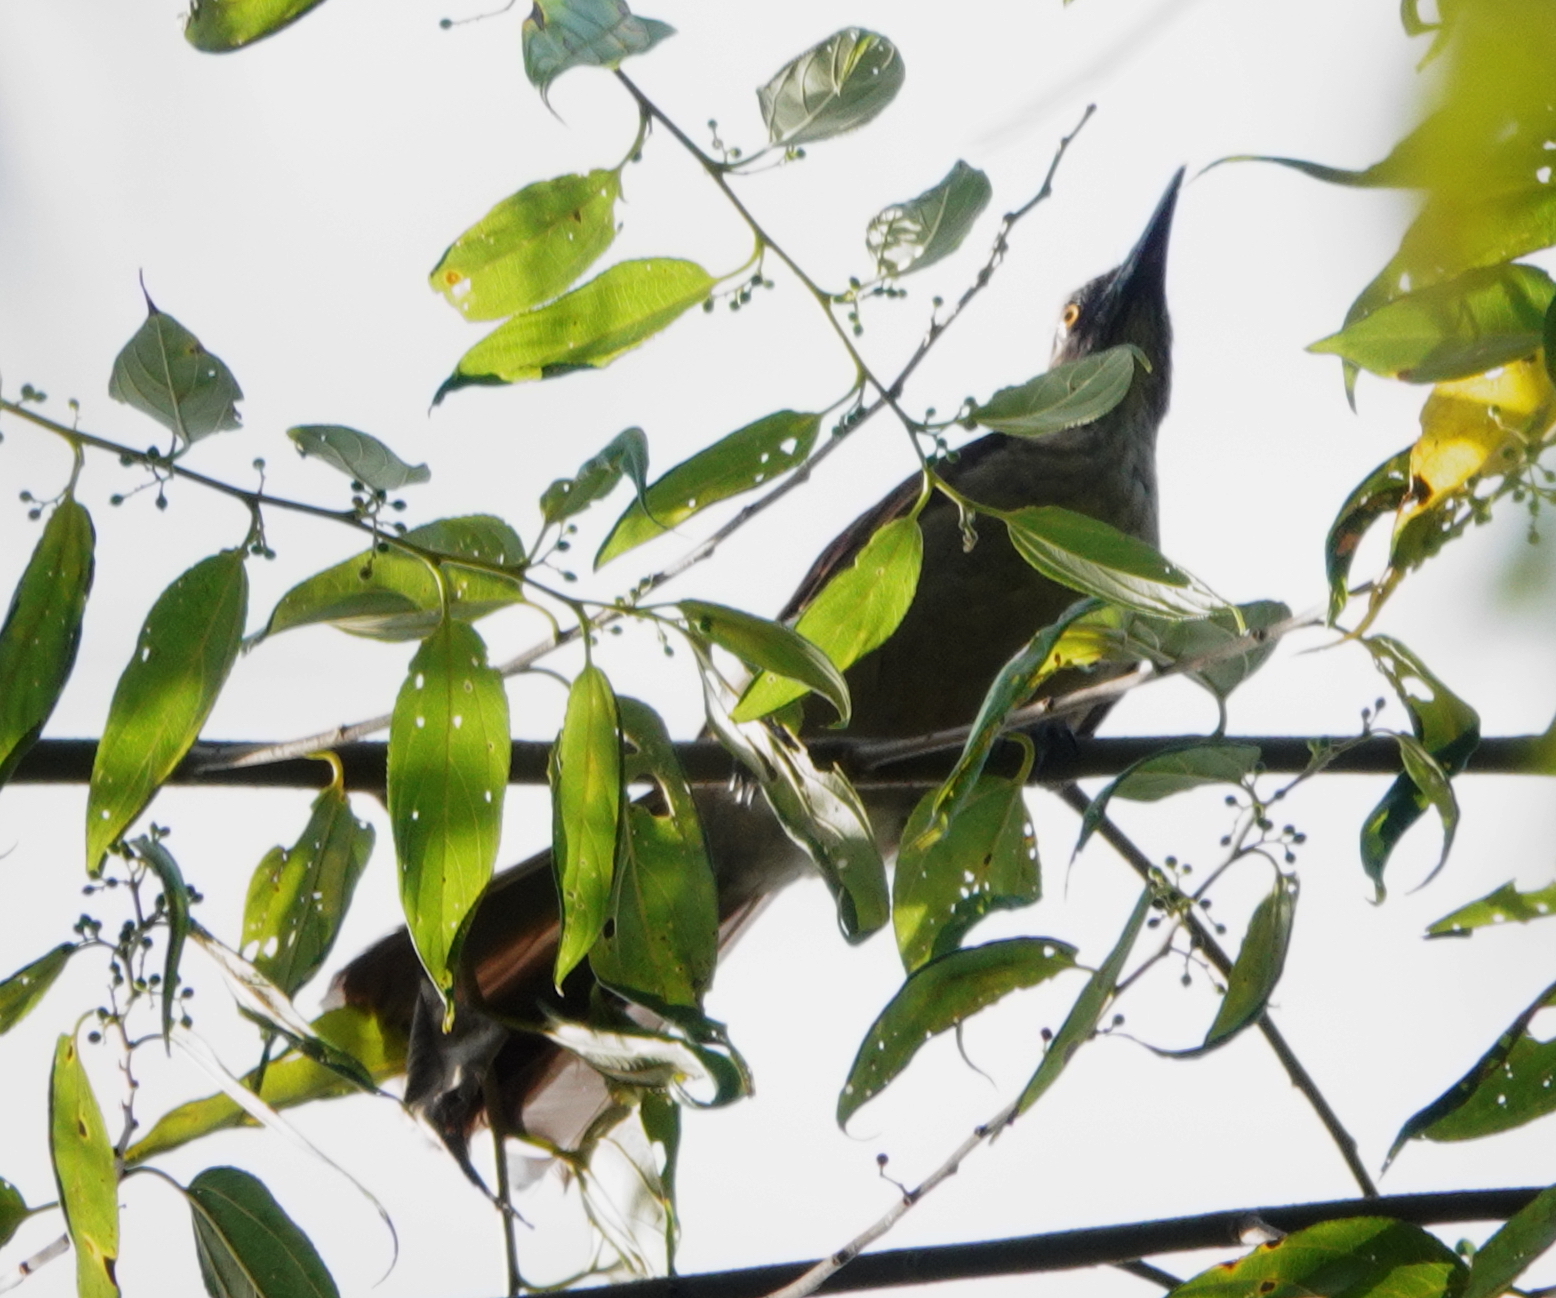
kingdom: Animalia
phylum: Chordata
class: Aves
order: Passeriformes
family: Oriolidae
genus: Oriolus
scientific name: Oriolus bouroensis
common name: Black-eared oriole
